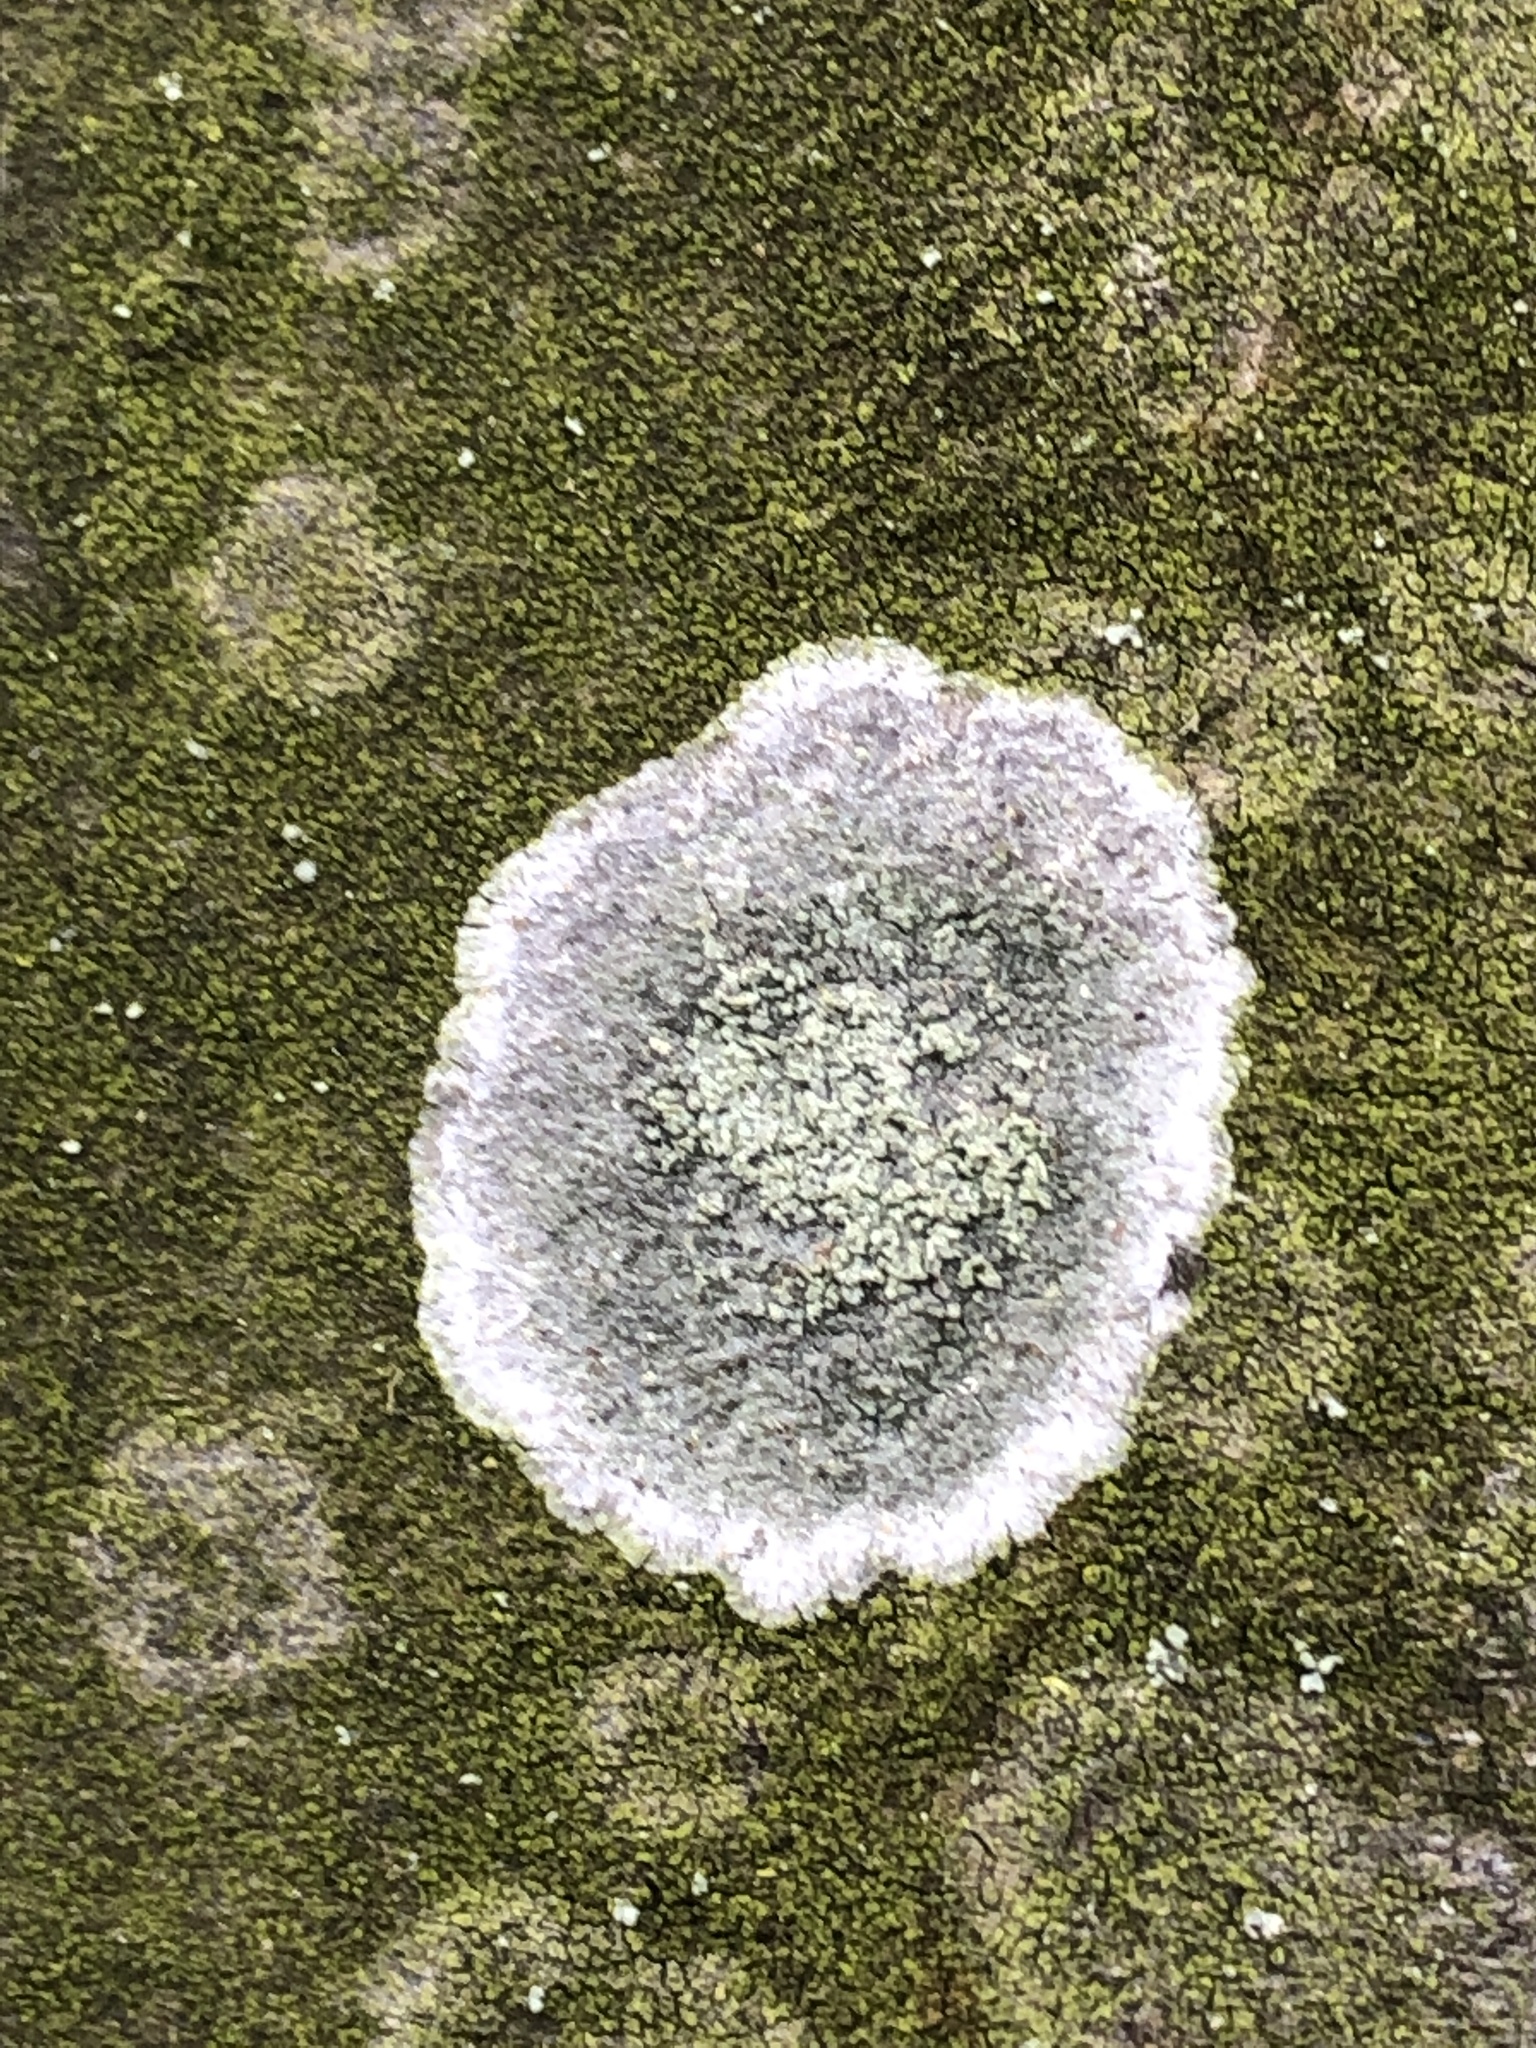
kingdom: Fungi
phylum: Ascomycota
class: Lecanoromycetes
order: Ostropales
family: Phlyctidaceae
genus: Phlyctis
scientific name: Phlyctis argena
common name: Whitewash lichen
